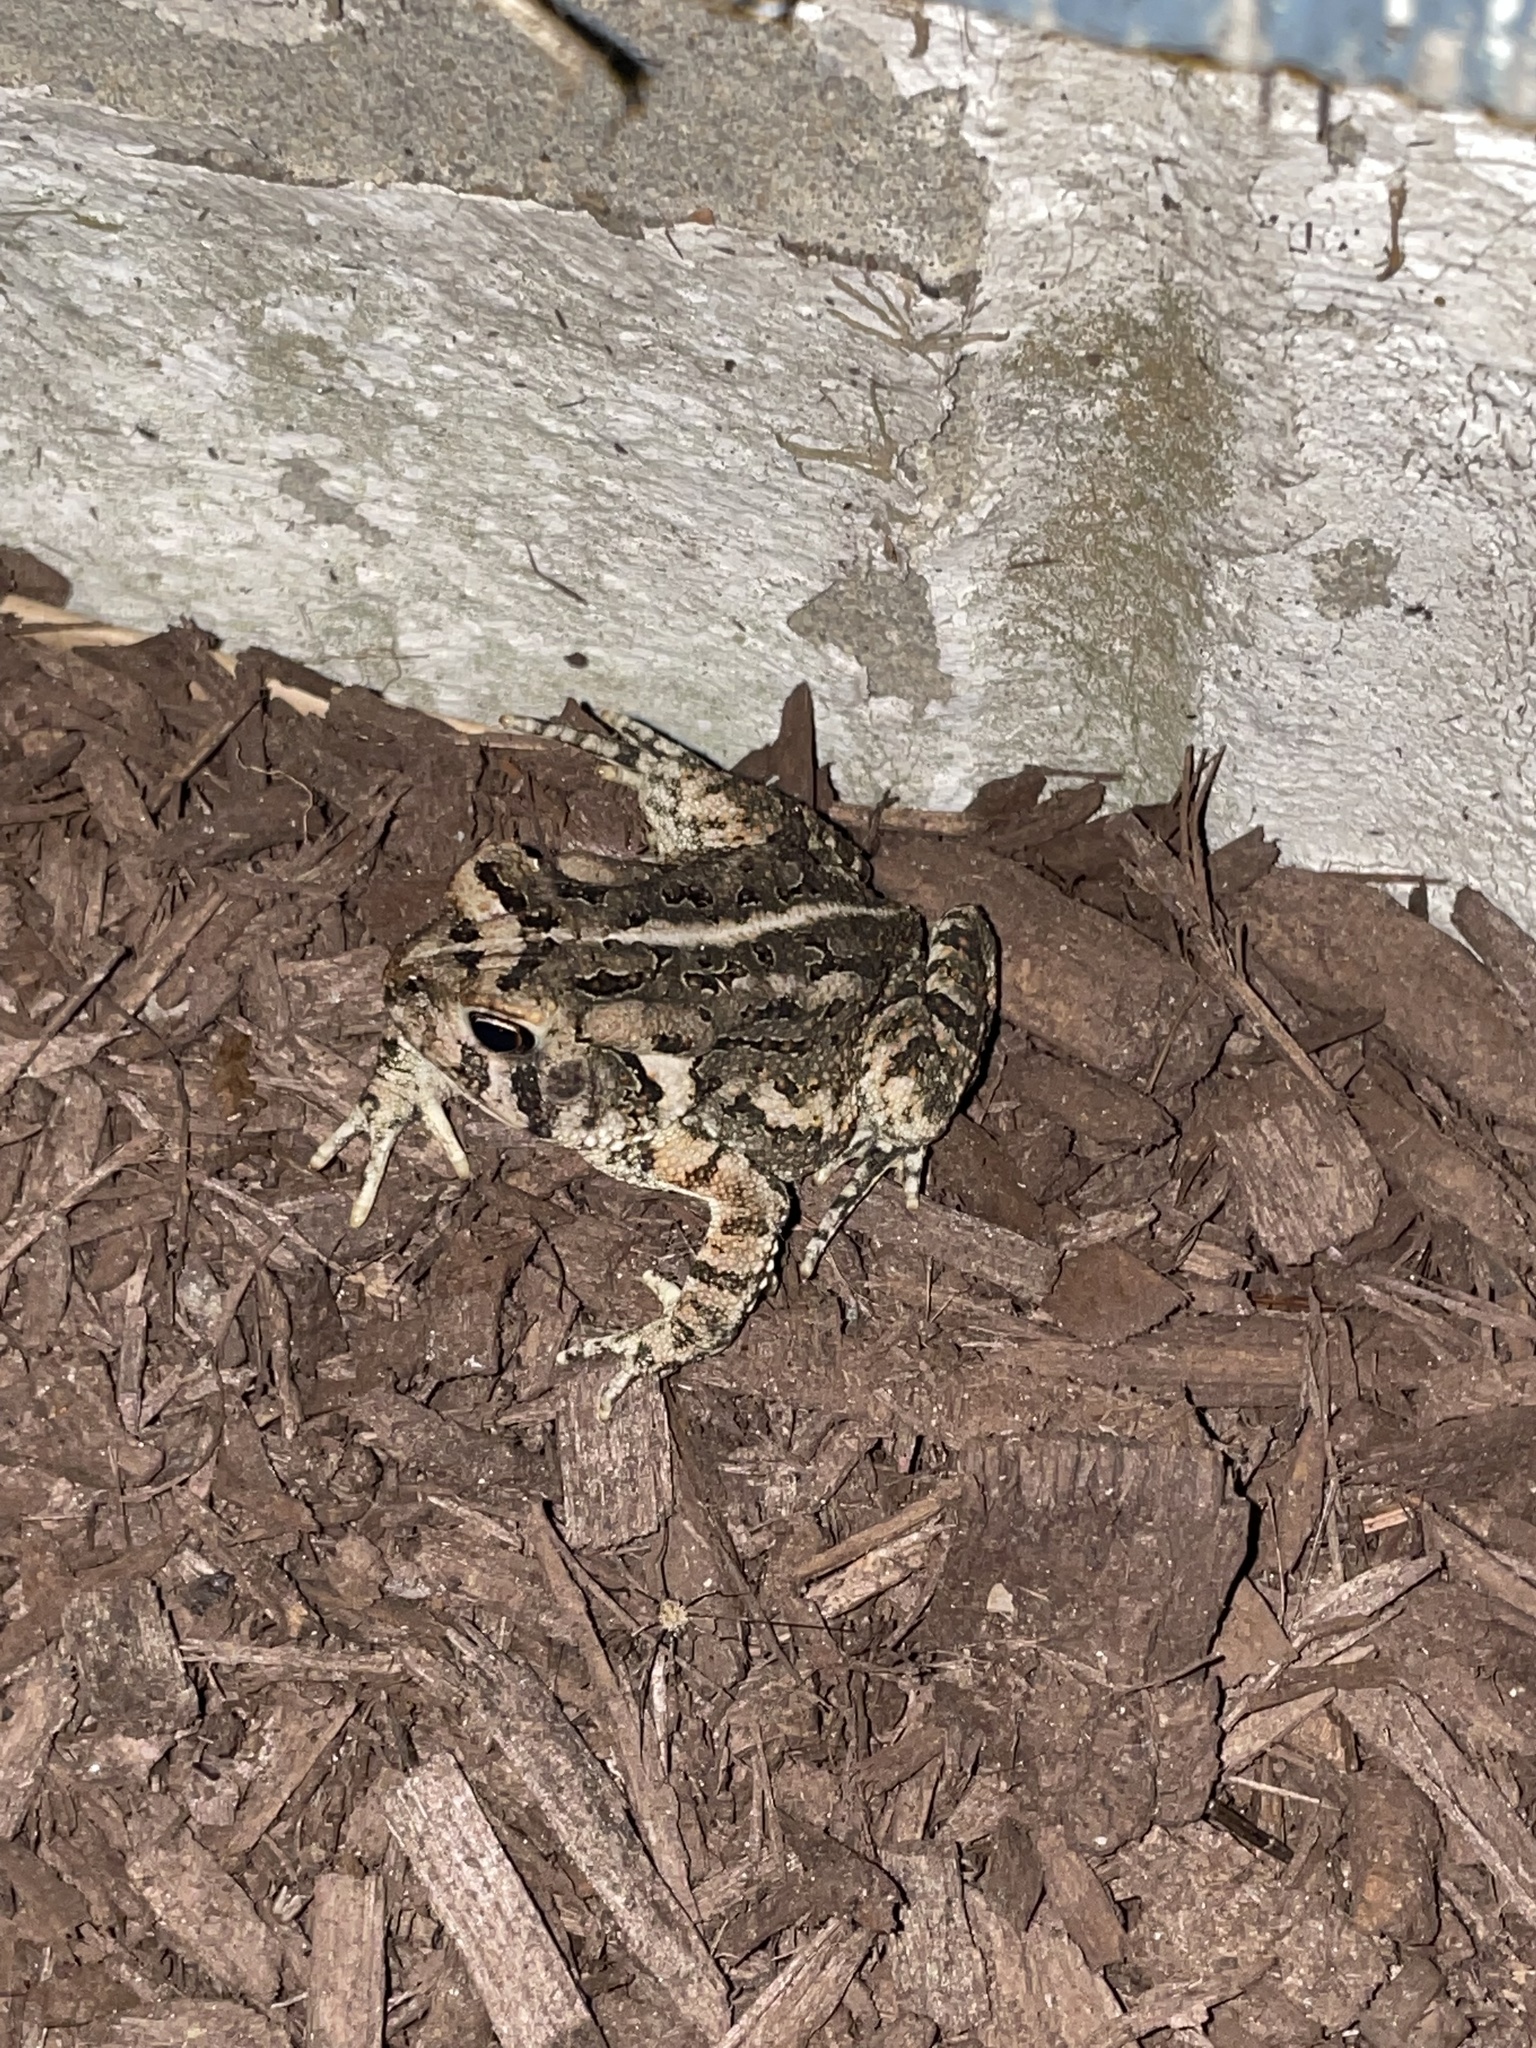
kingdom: Animalia
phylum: Chordata
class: Amphibia
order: Anura
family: Bufonidae
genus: Anaxyrus
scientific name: Anaxyrus fowleri
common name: Fowler's toad
